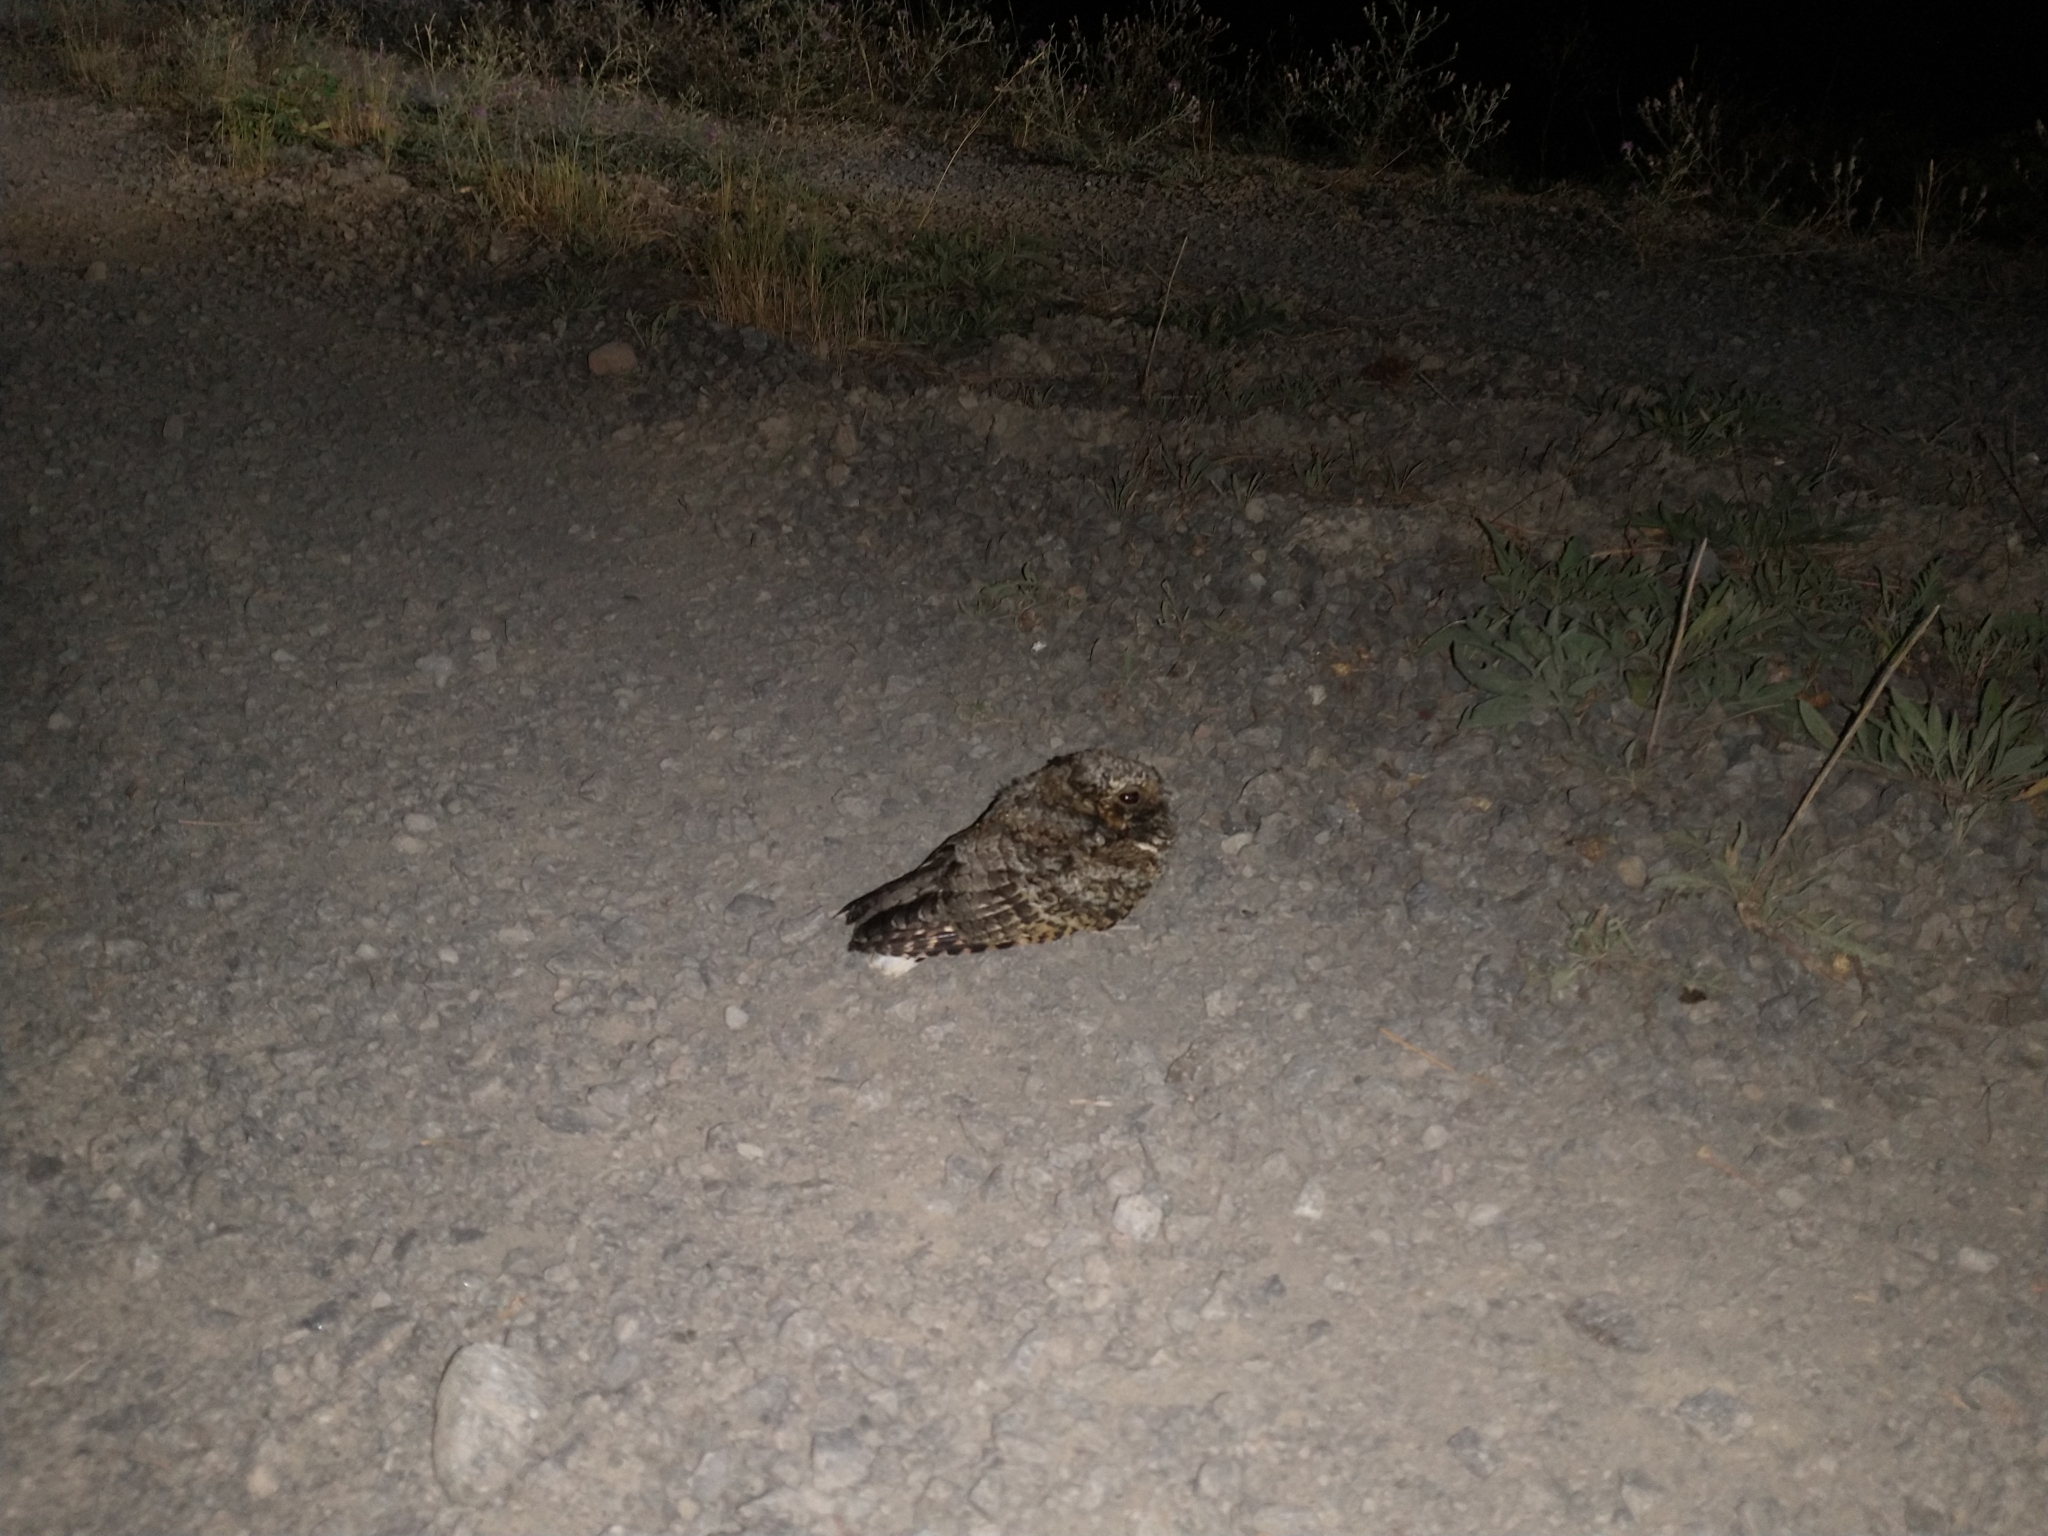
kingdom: Animalia
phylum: Chordata
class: Aves
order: Caprimulgiformes
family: Caprimulgidae
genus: Phalaenoptilus
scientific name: Phalaenoptilus nuttallii
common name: Common poorwill
